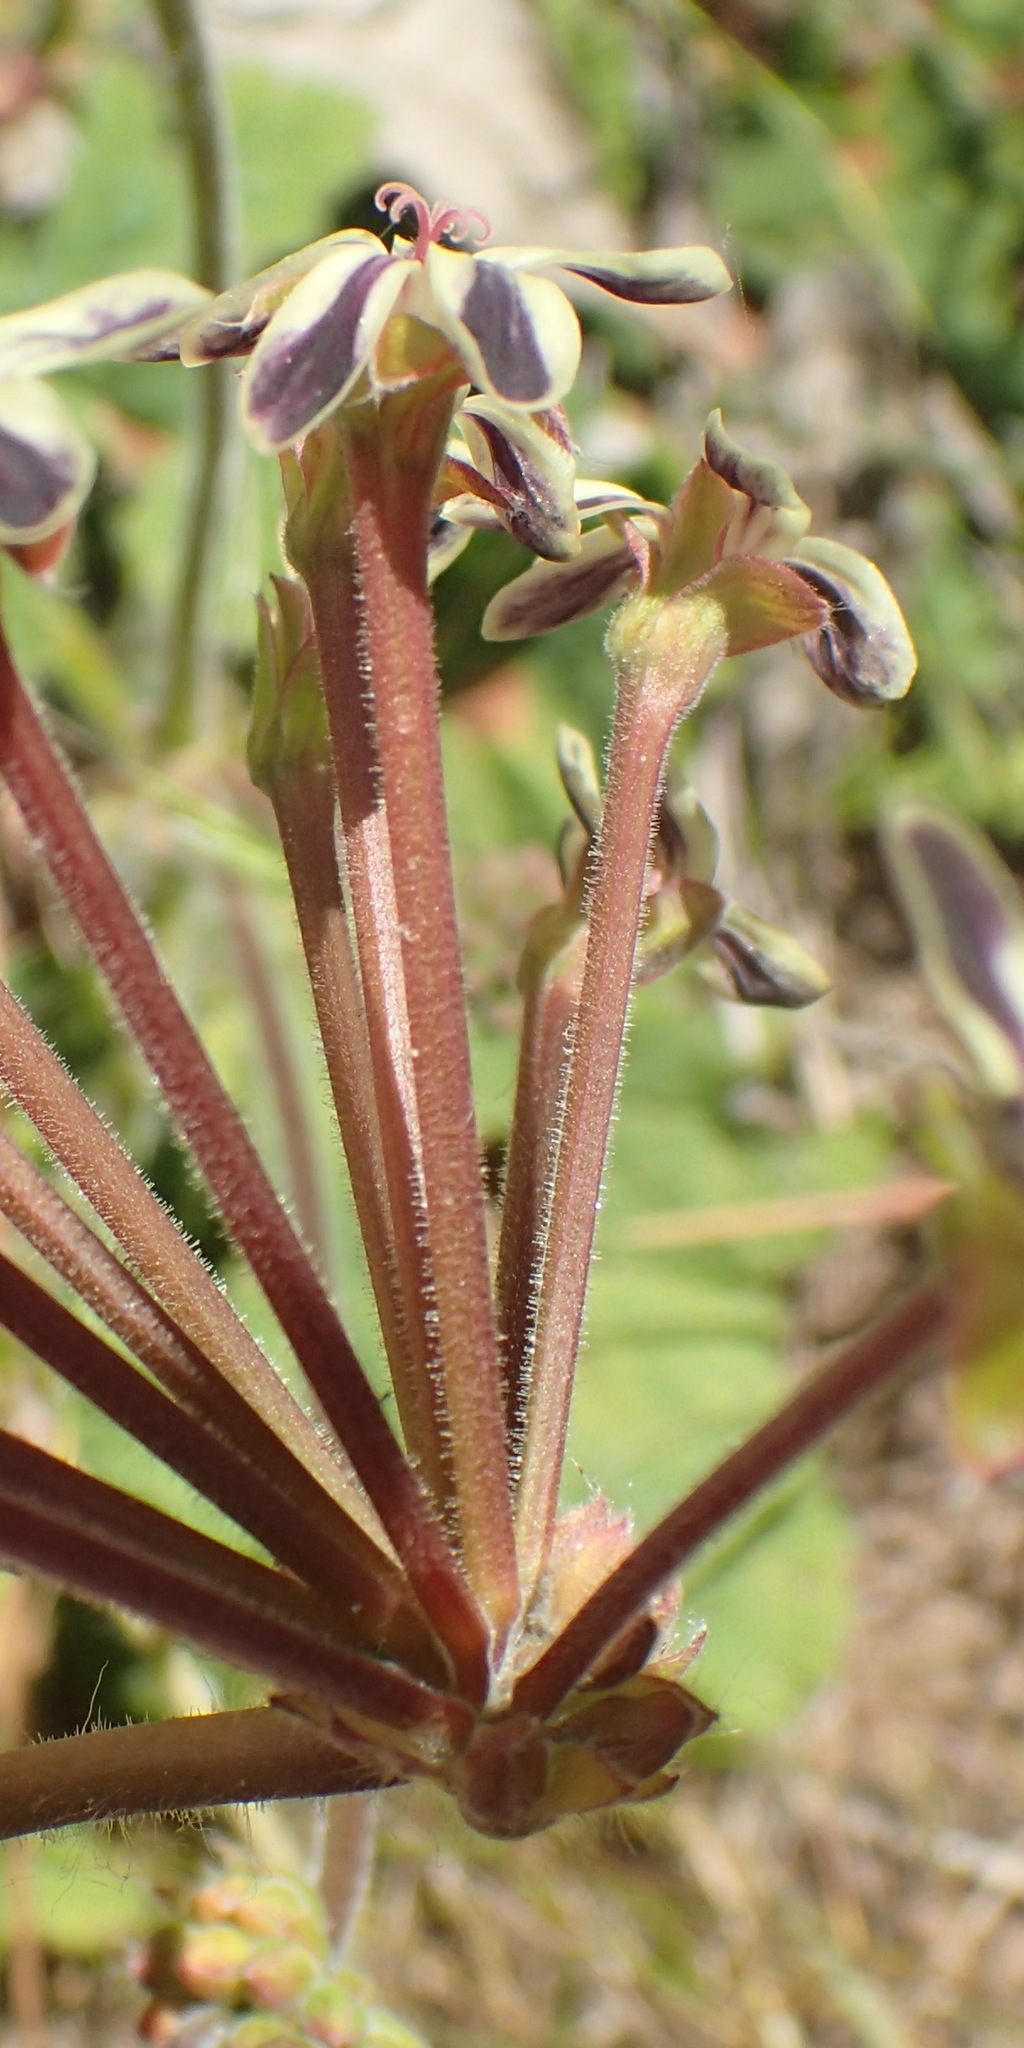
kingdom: Plantae
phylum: Tracheophyta
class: Magnoliopsida
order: Geraniales
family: Geraniaceae
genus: Pelargonium
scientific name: Pelargonium lobatum
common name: Vine-leaf pelargonium
